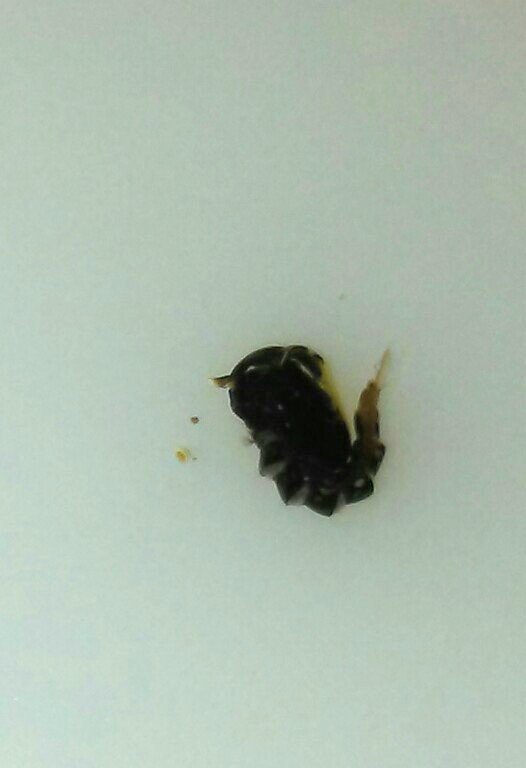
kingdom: Animalia
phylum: Arthropoda
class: Insecta
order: Diptera
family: Culicidae
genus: Aedes
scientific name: Aedes albopictus
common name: Tiger mosquito
